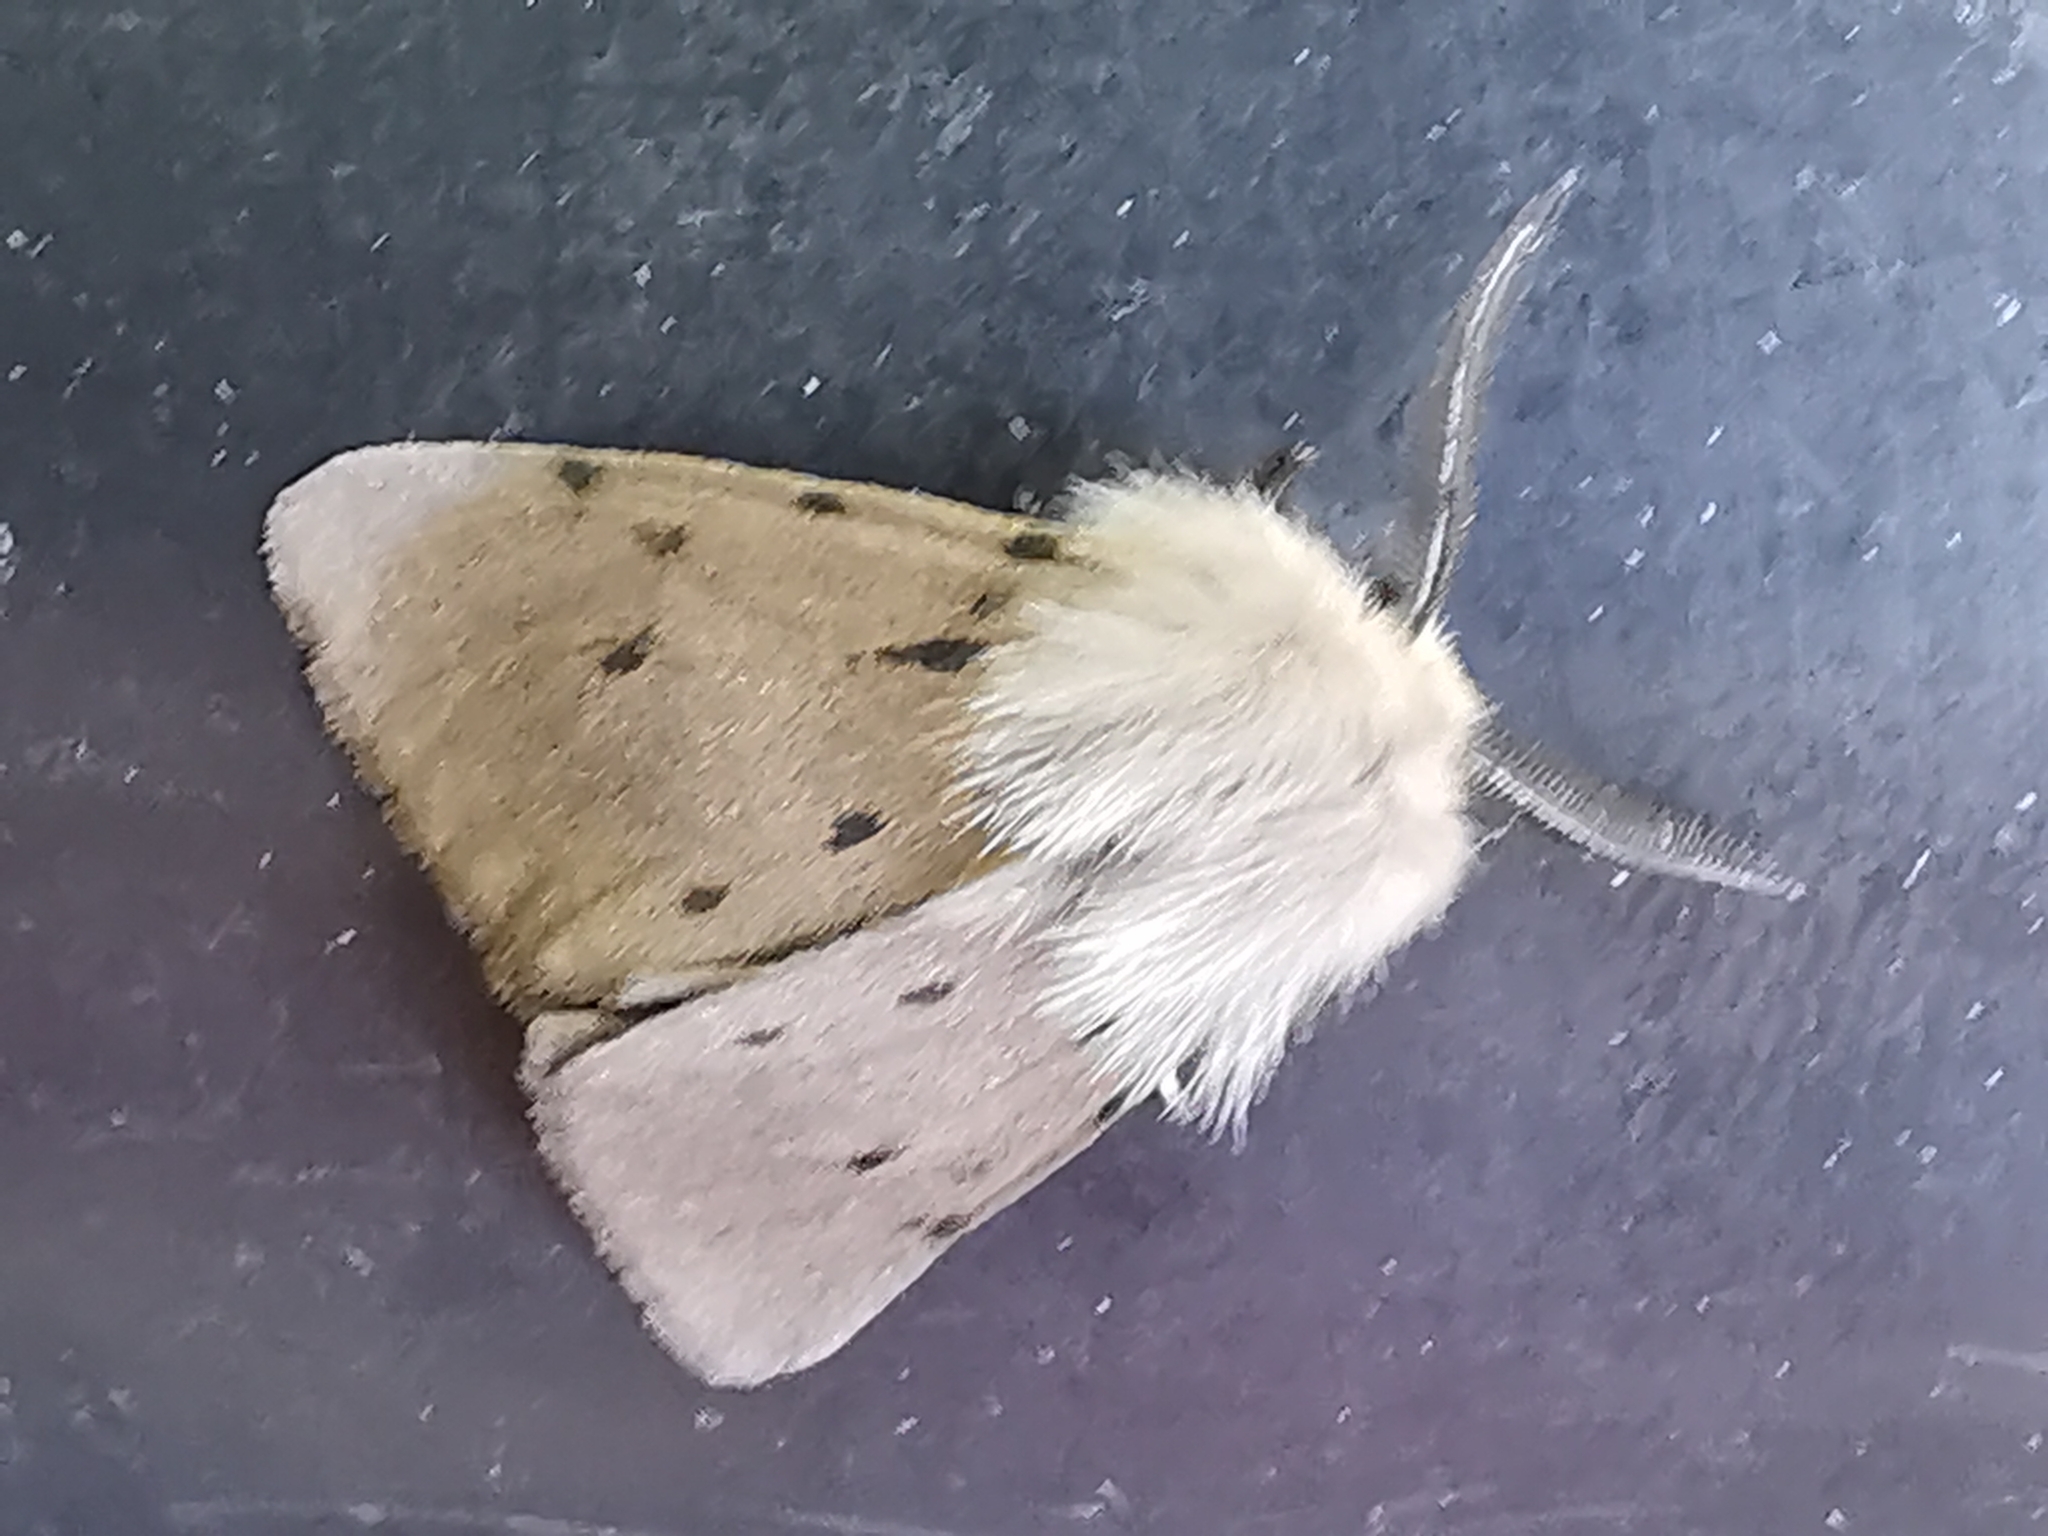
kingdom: Animalia
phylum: Arthropoda
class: Insecta
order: Lepidoptera
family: Erebidae
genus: Diaphora
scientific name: Diaphora mendica
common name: Muslin moth
